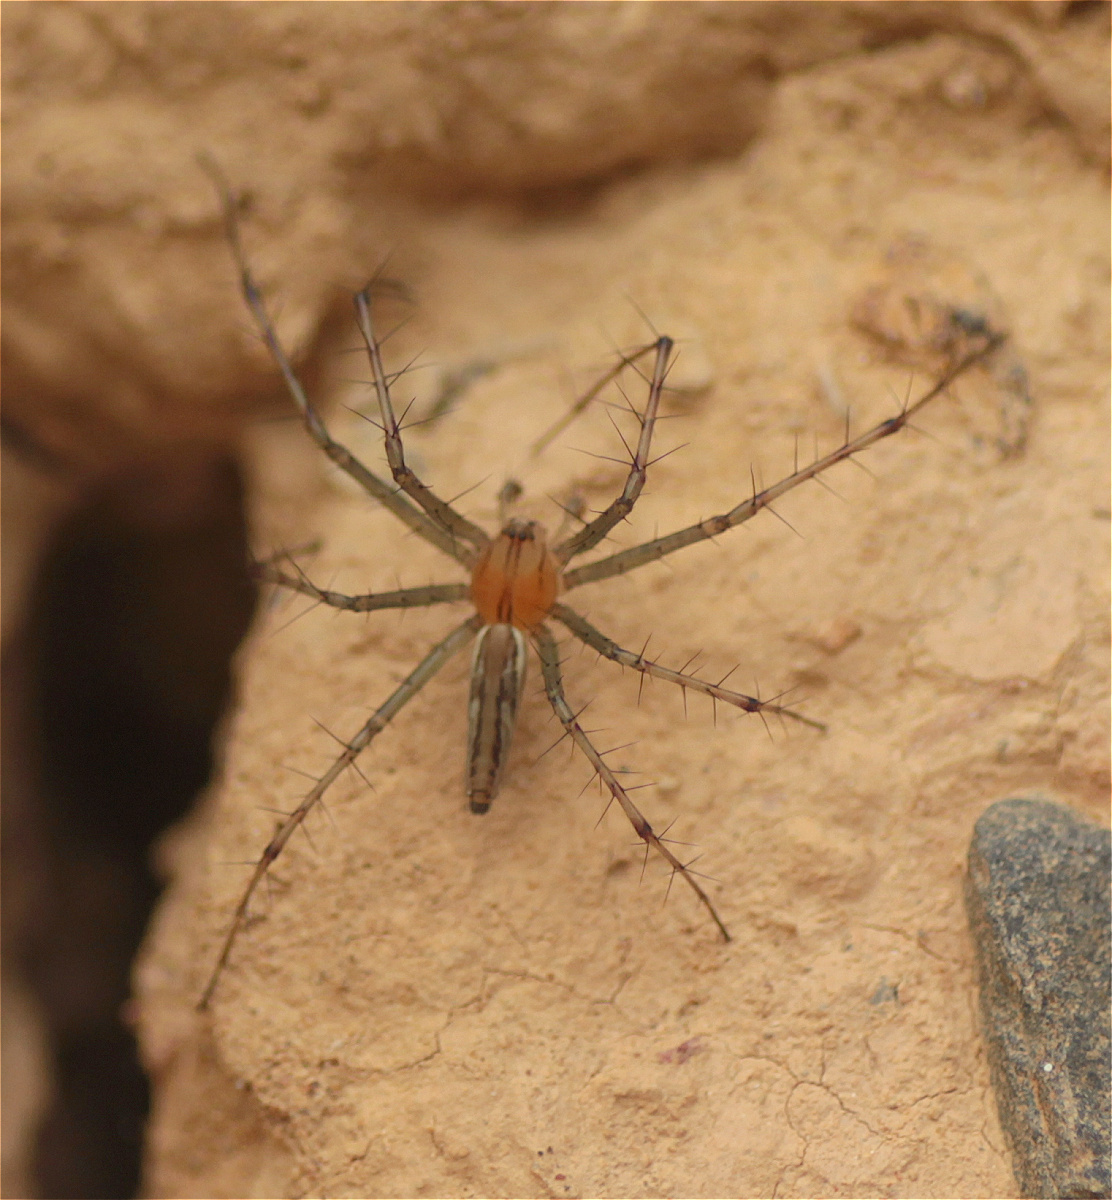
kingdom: Animalia
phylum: Arthropoda
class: Arachnida
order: Araneae
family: Oxyopidae
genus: Peucetia
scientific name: Peucetia rubrolineata
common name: Lynx spiders
